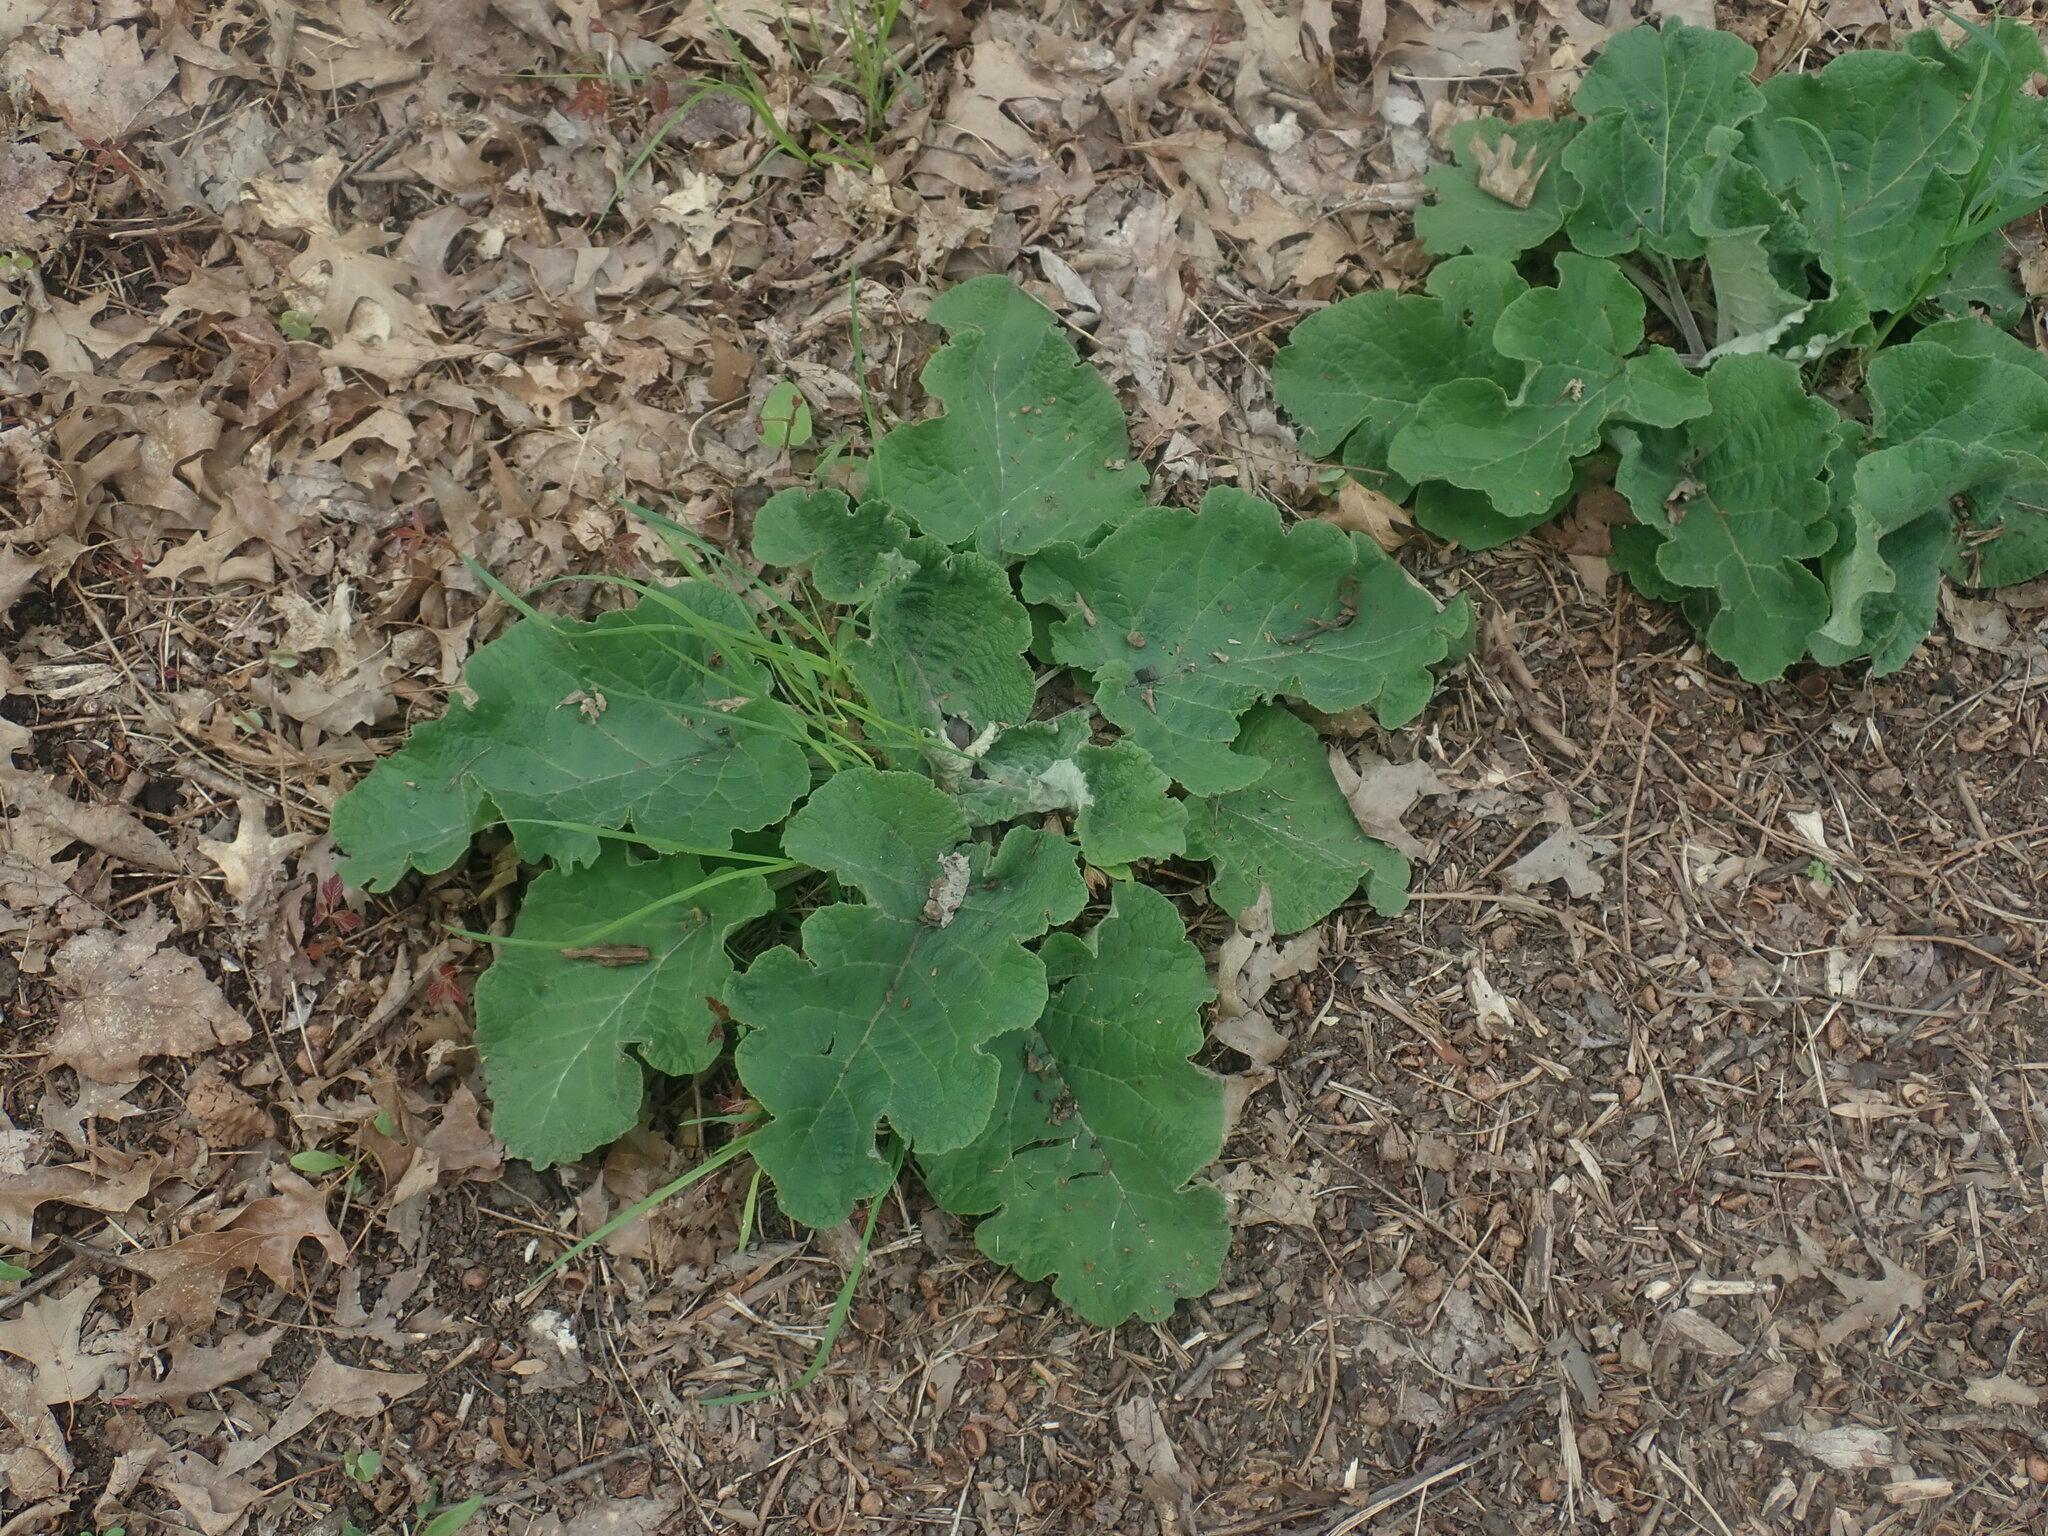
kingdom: Plantae
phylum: Tracheophyta
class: Magnoliopsida
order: Asterales
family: Asteraceae
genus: Arctium
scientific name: Arctium
